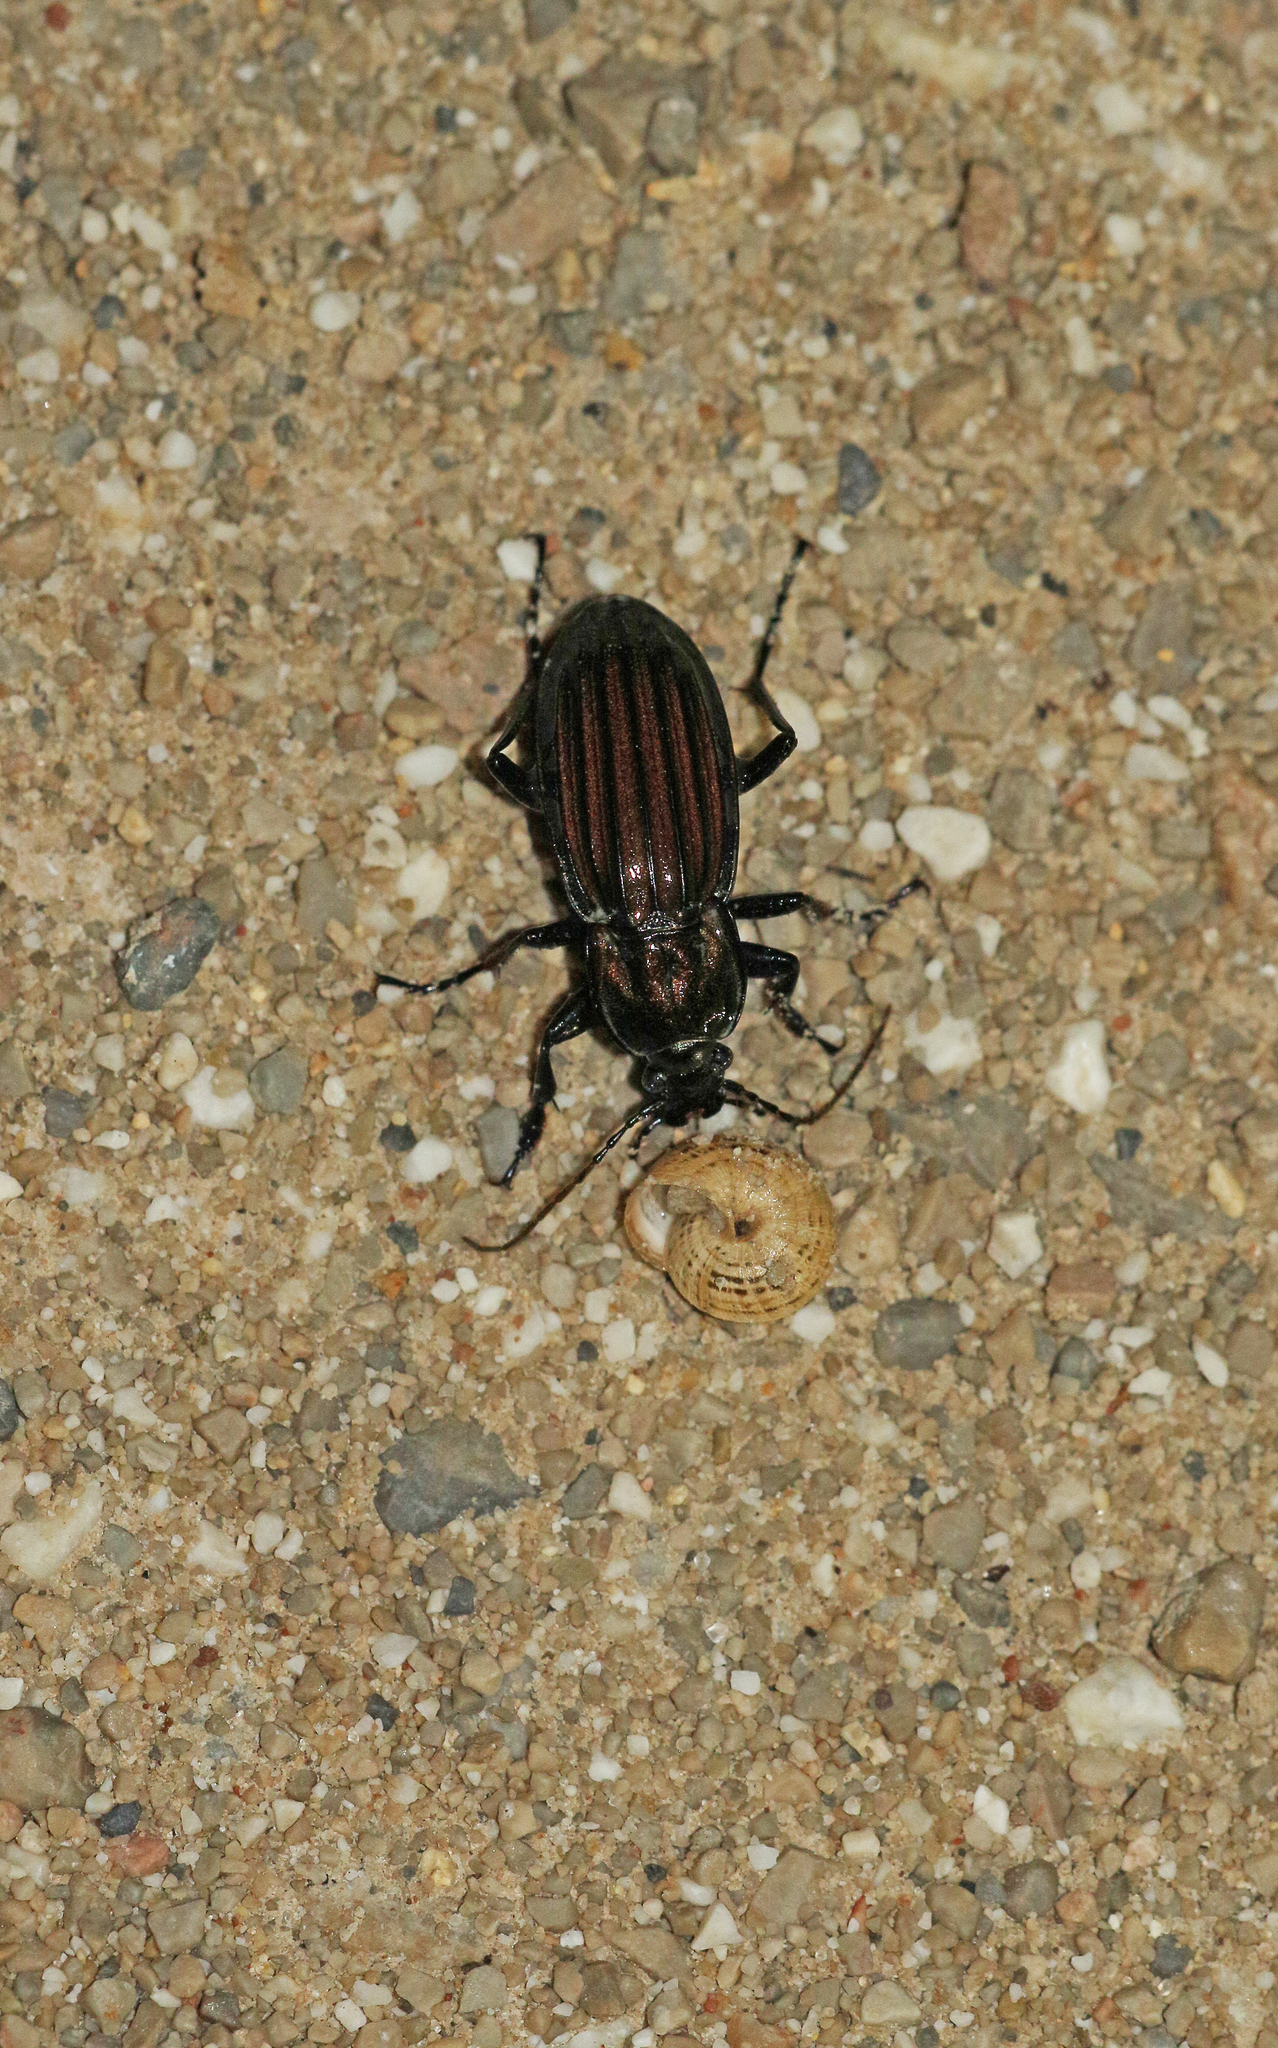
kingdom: Animalia
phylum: Arthropoda
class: Insecta
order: Coleoptera
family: Carabidae
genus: Carabus
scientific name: Carabus melancholicus
